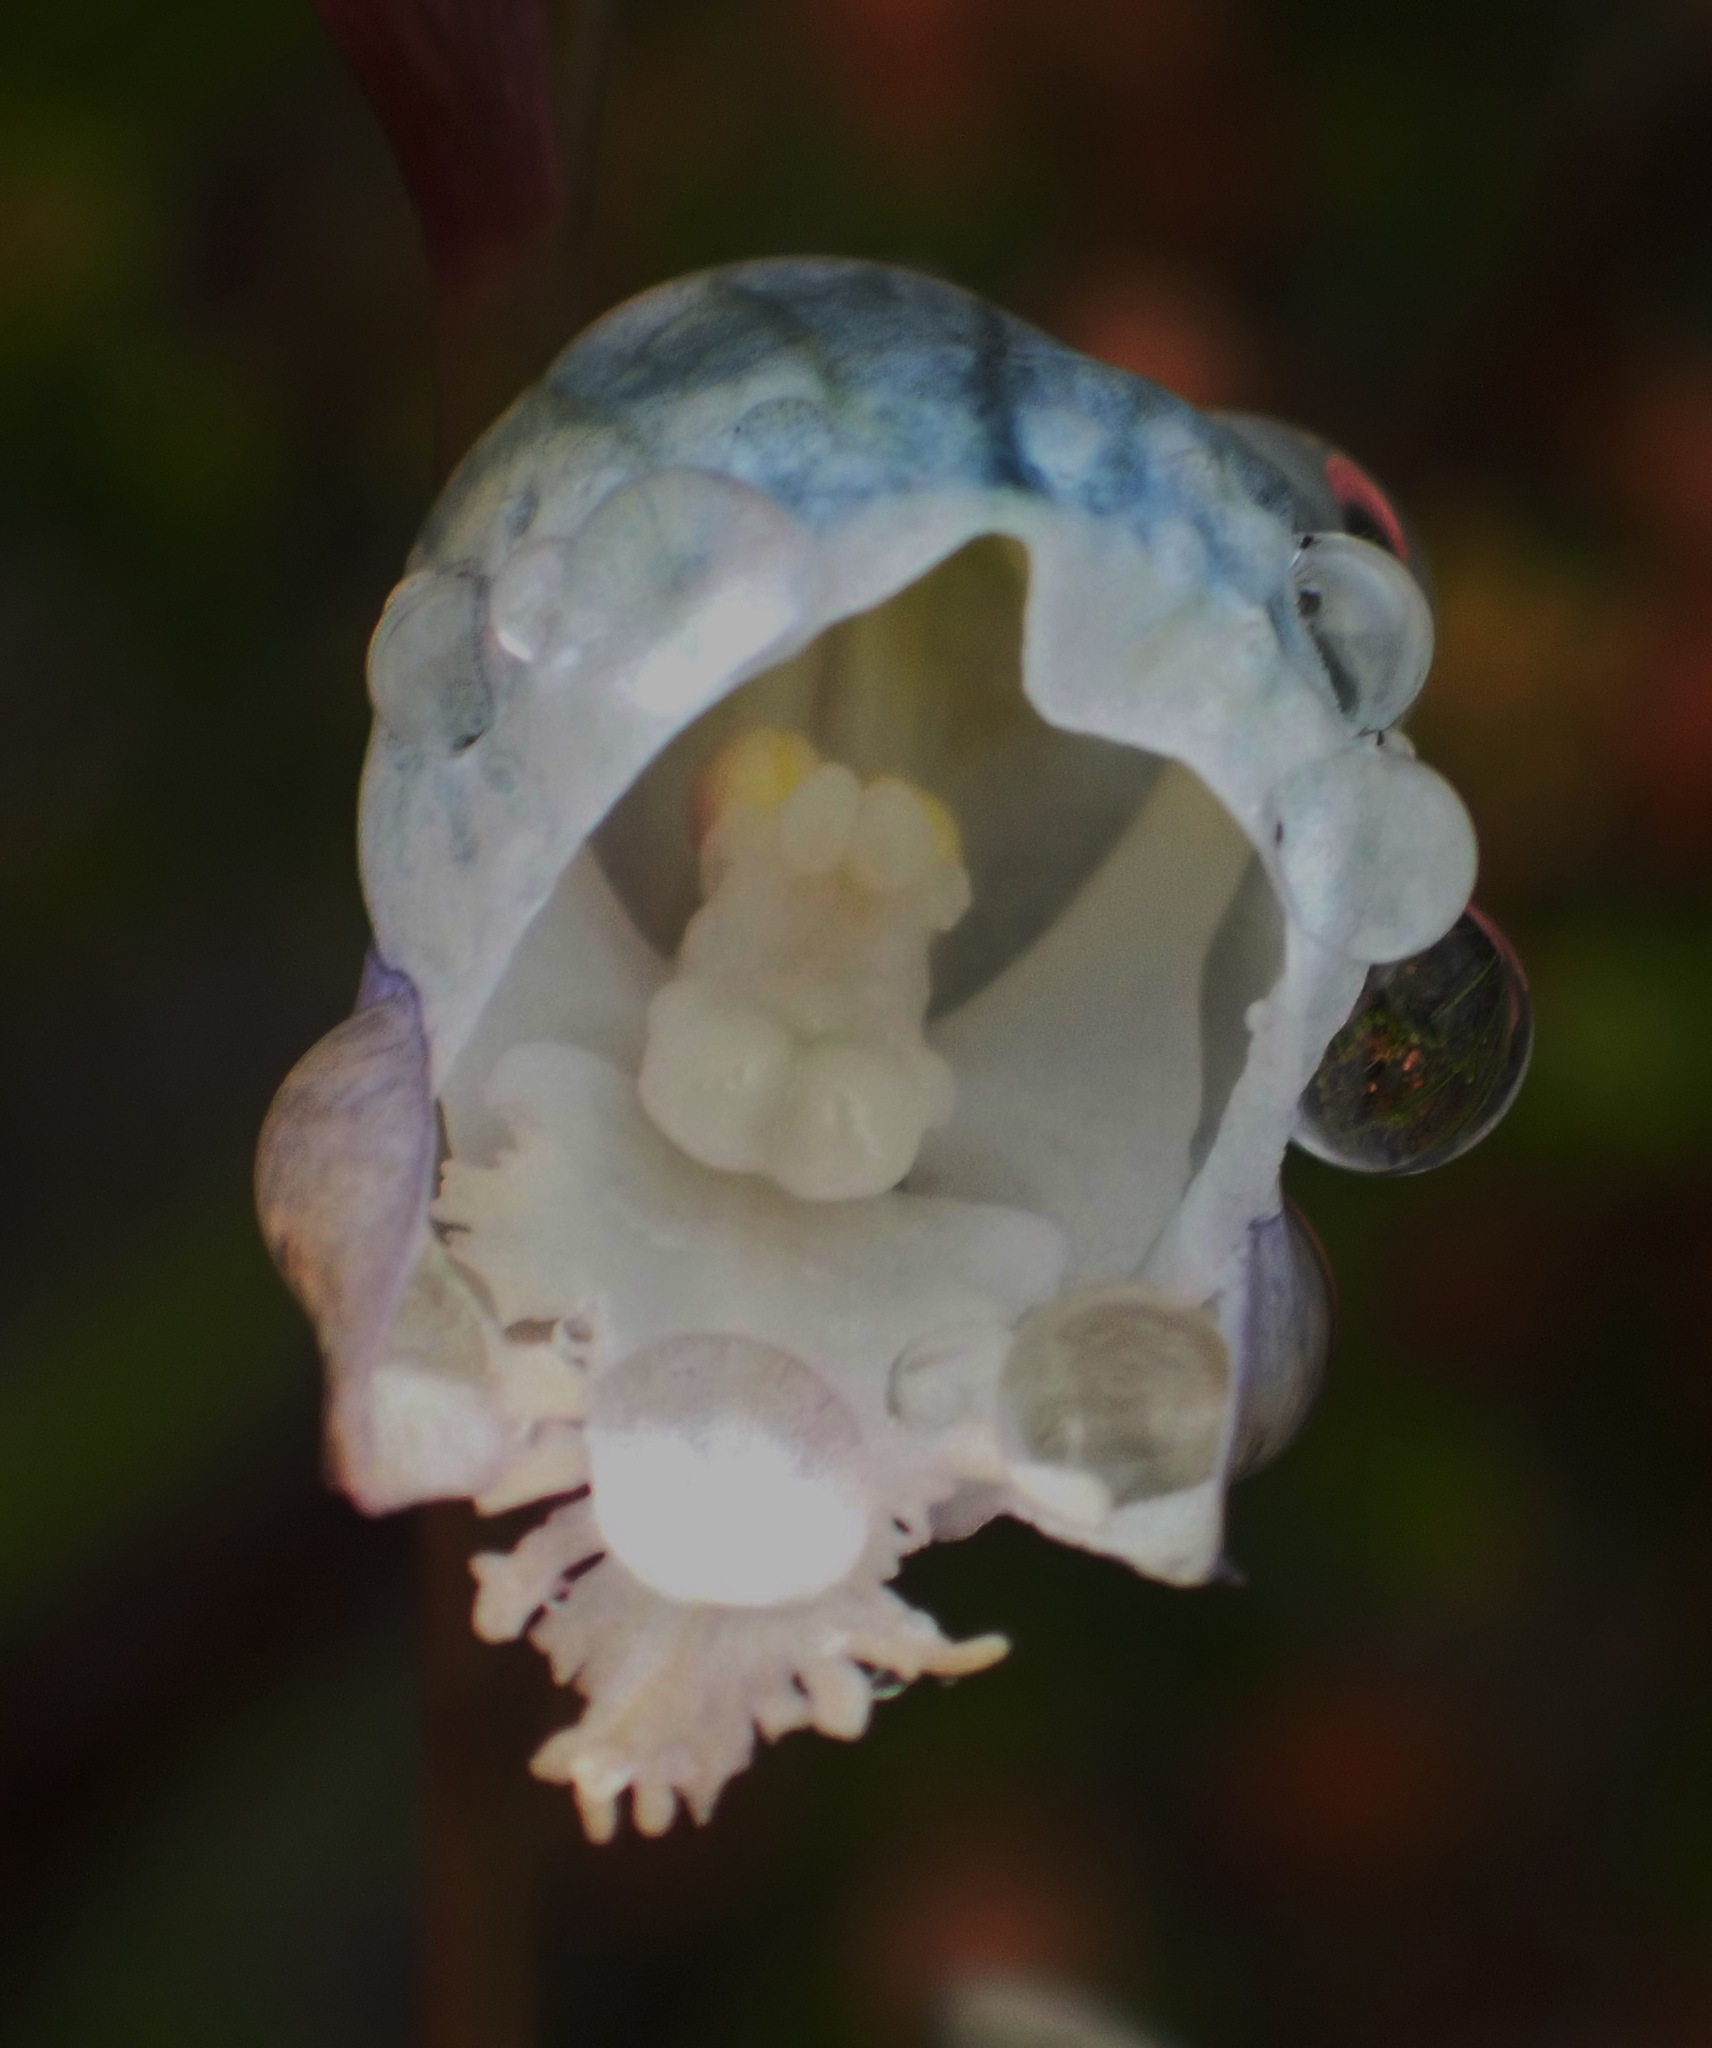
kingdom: Plantae
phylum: Tracheophyta
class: Liliopsida
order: Asparagales
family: Orchidaceae
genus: Disa
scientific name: Disa hians
